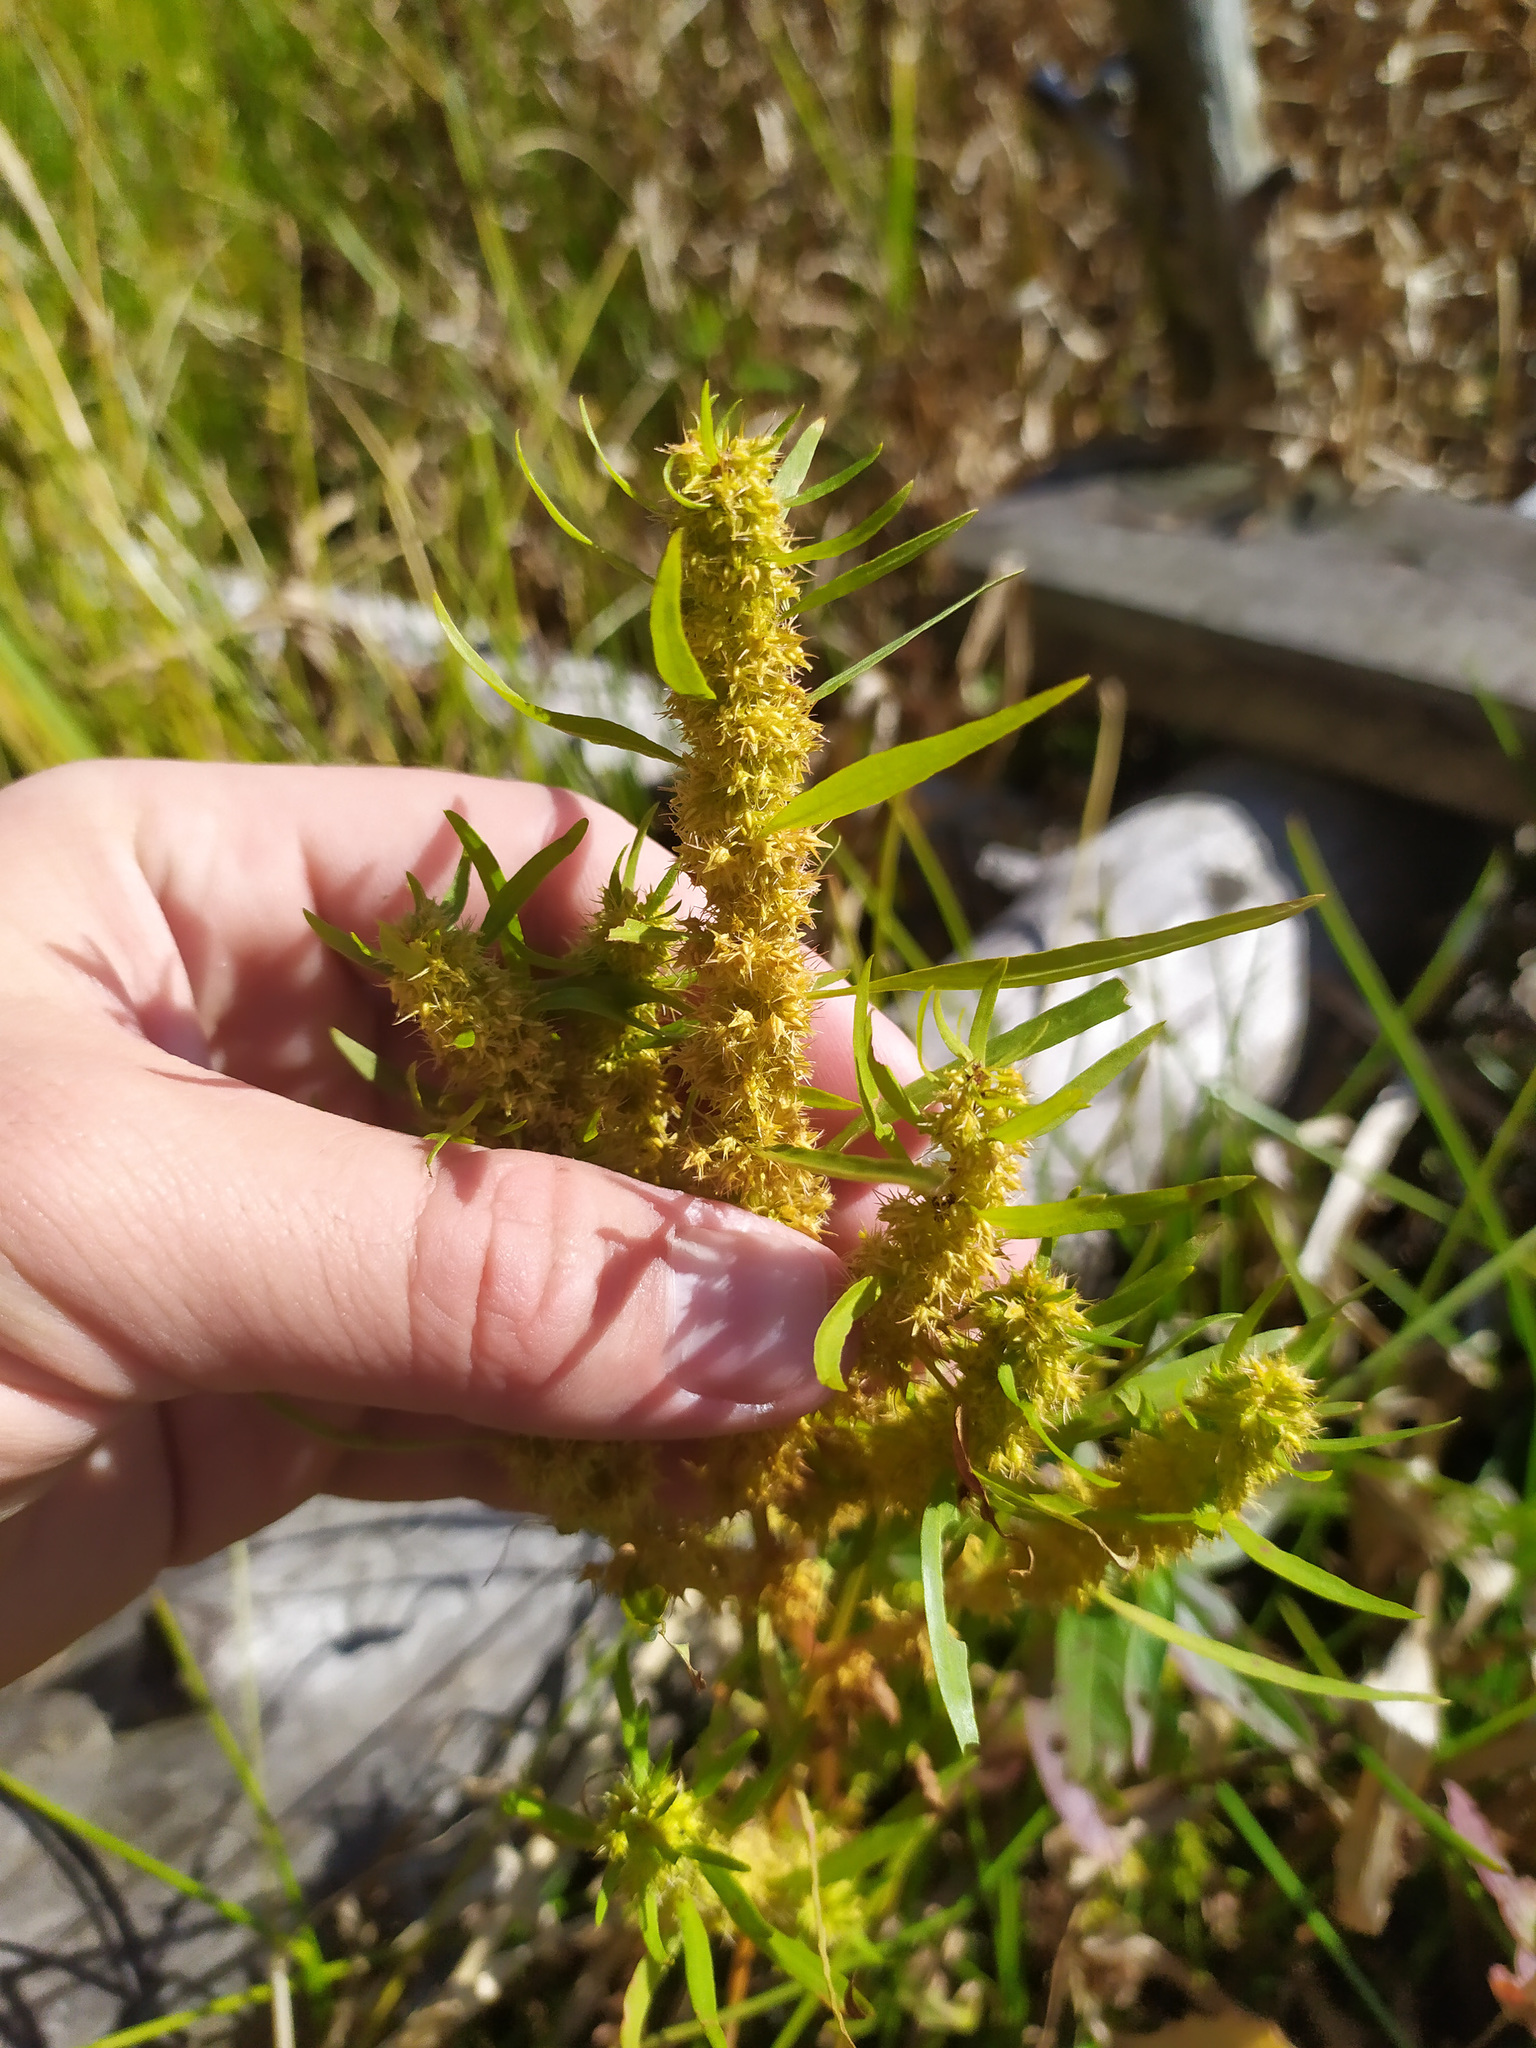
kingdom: Plantae
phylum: Tracheophyta
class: Magnoliopsida
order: Caryophyllales
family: Polygonaceae
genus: Rumex
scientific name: Rumex maritimus
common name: Golden dock
